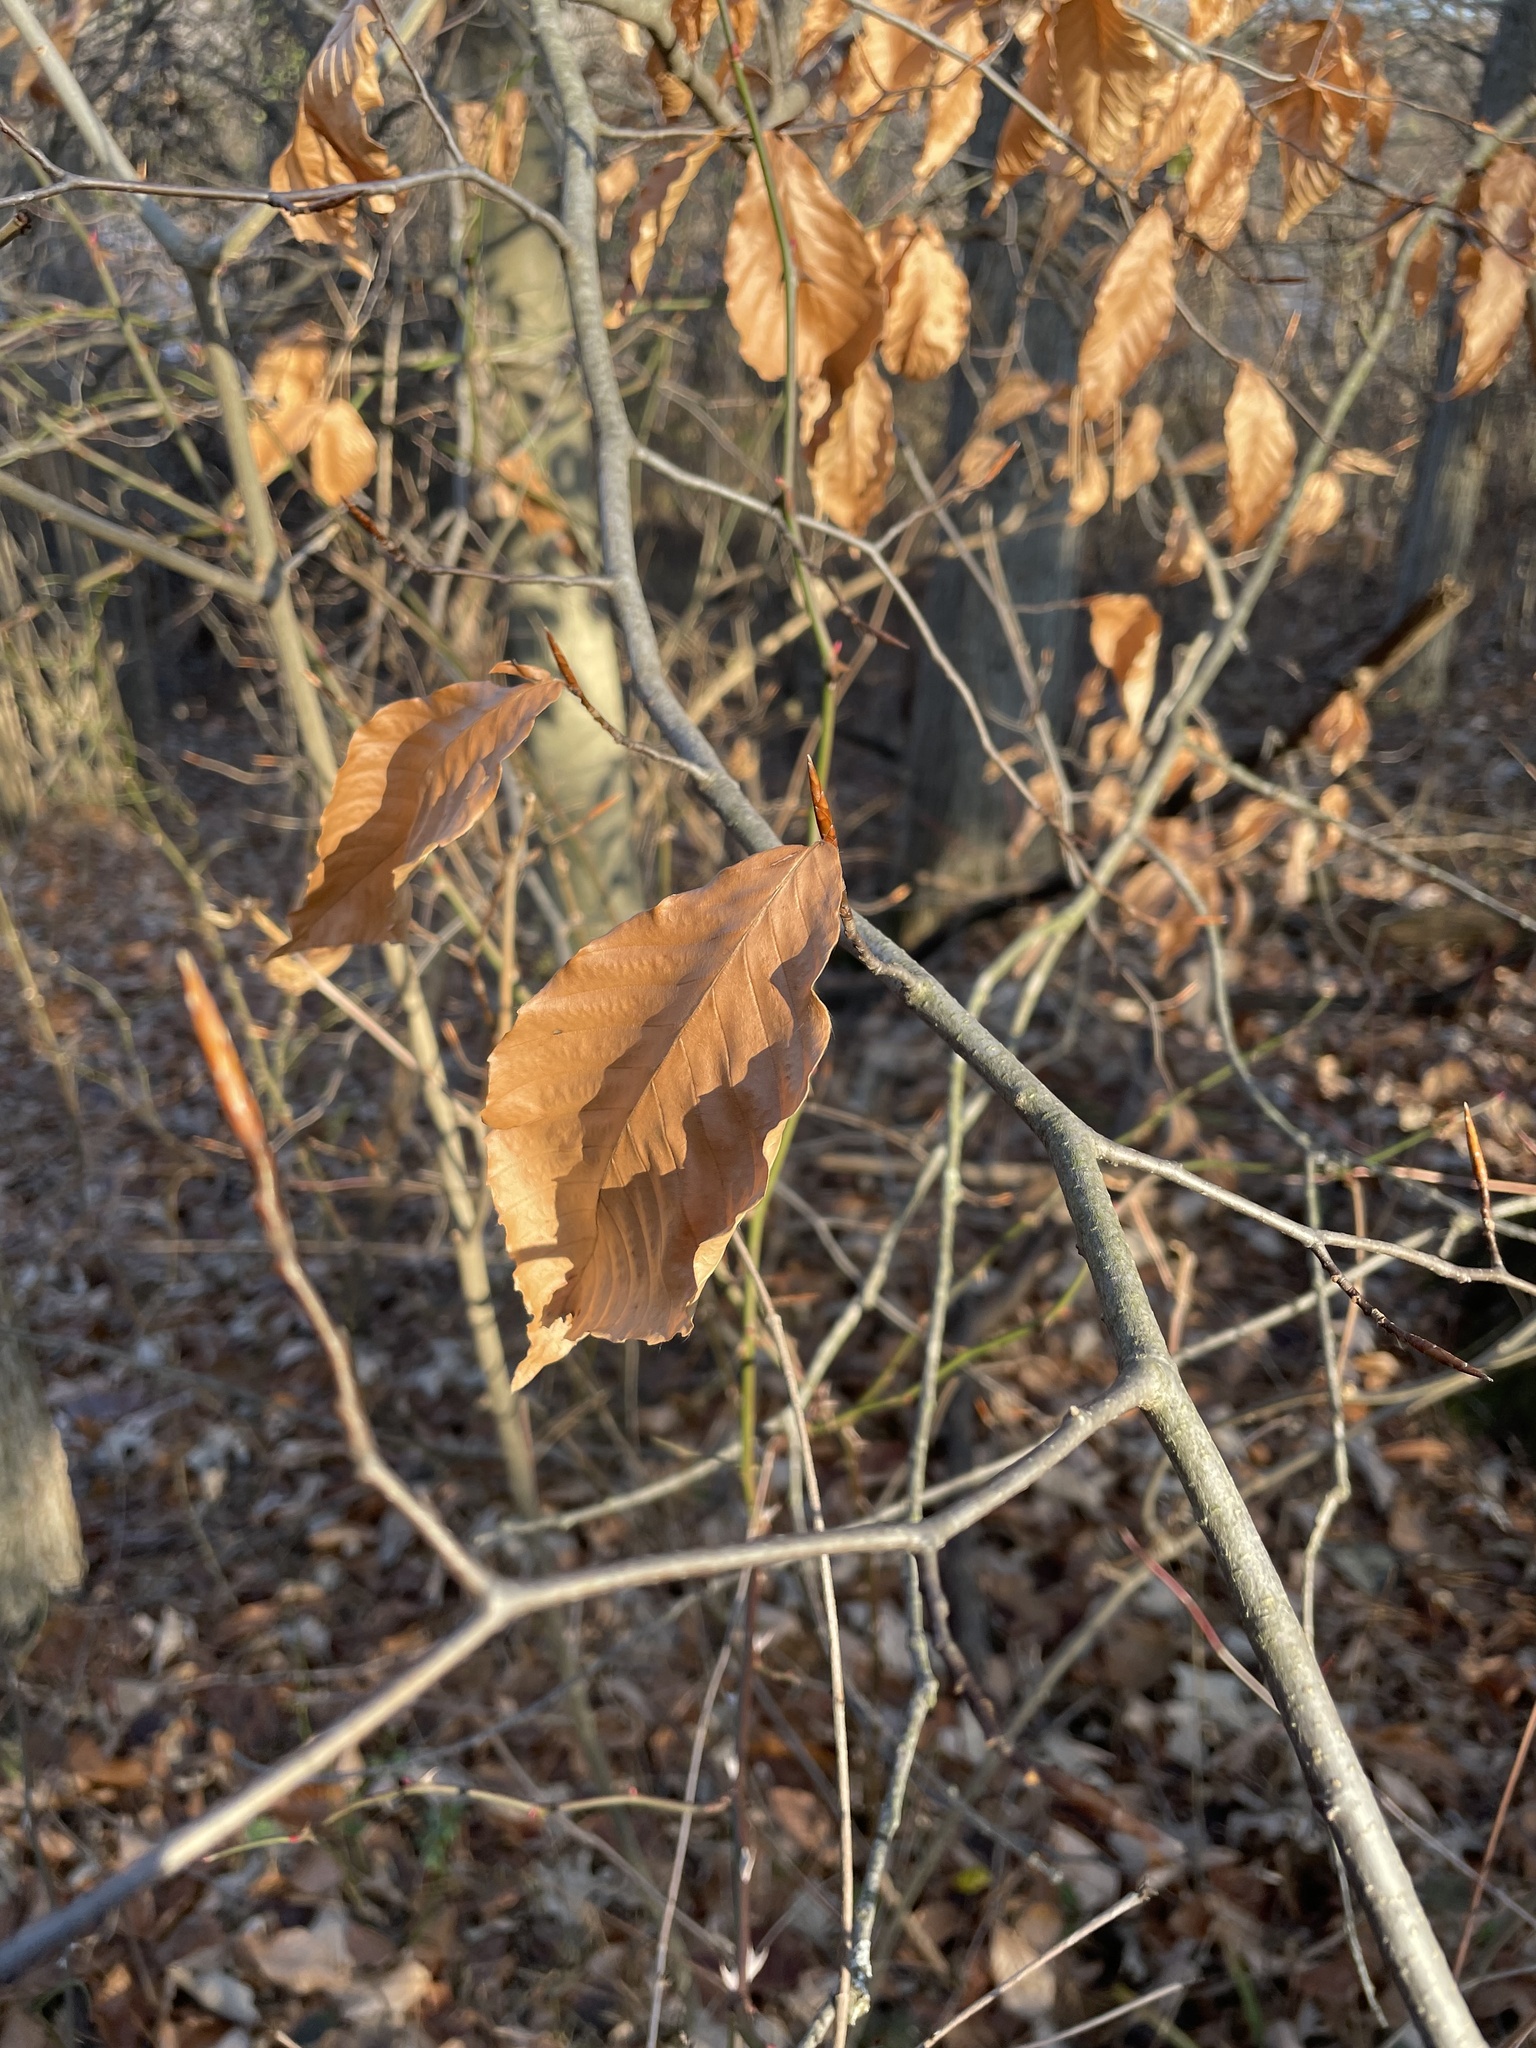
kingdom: Plantae
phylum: Tracheophyta
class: Magnoliopsida
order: Fagales
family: Fagaceae
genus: Fagus
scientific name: Fagus grandifolia
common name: American beech
